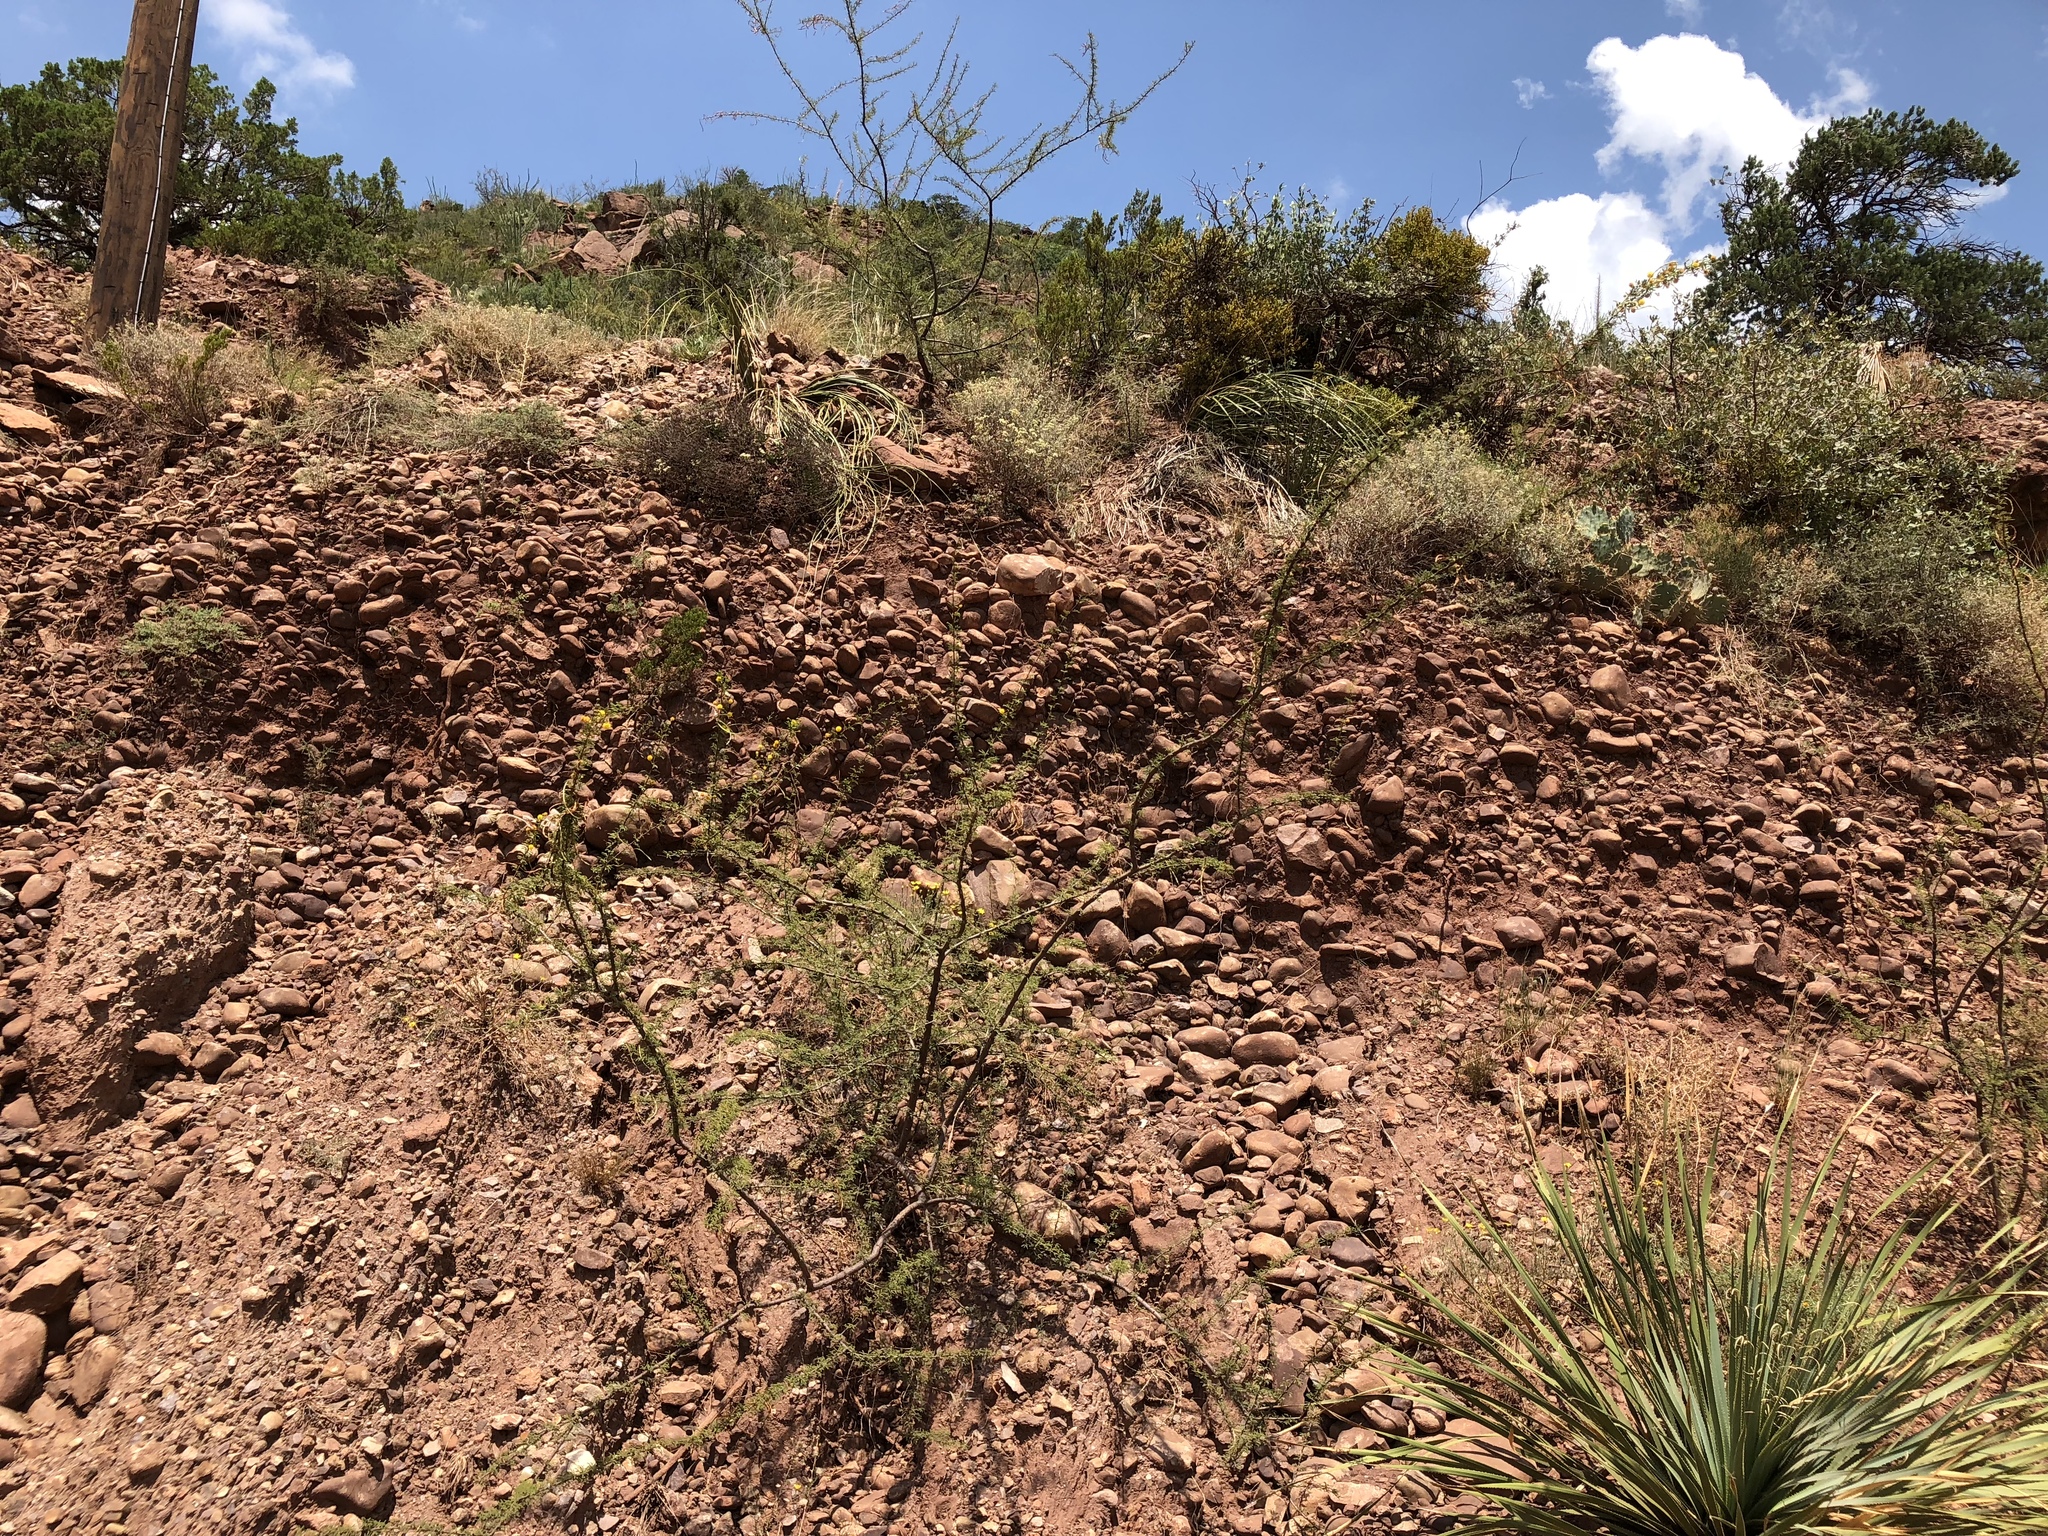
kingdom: Plantae
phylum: Tracheophyta
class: Magnoliopsida
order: Fabales
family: Fabaceae
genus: Vachellia
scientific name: Vachellia constricta
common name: Mescat acacia
